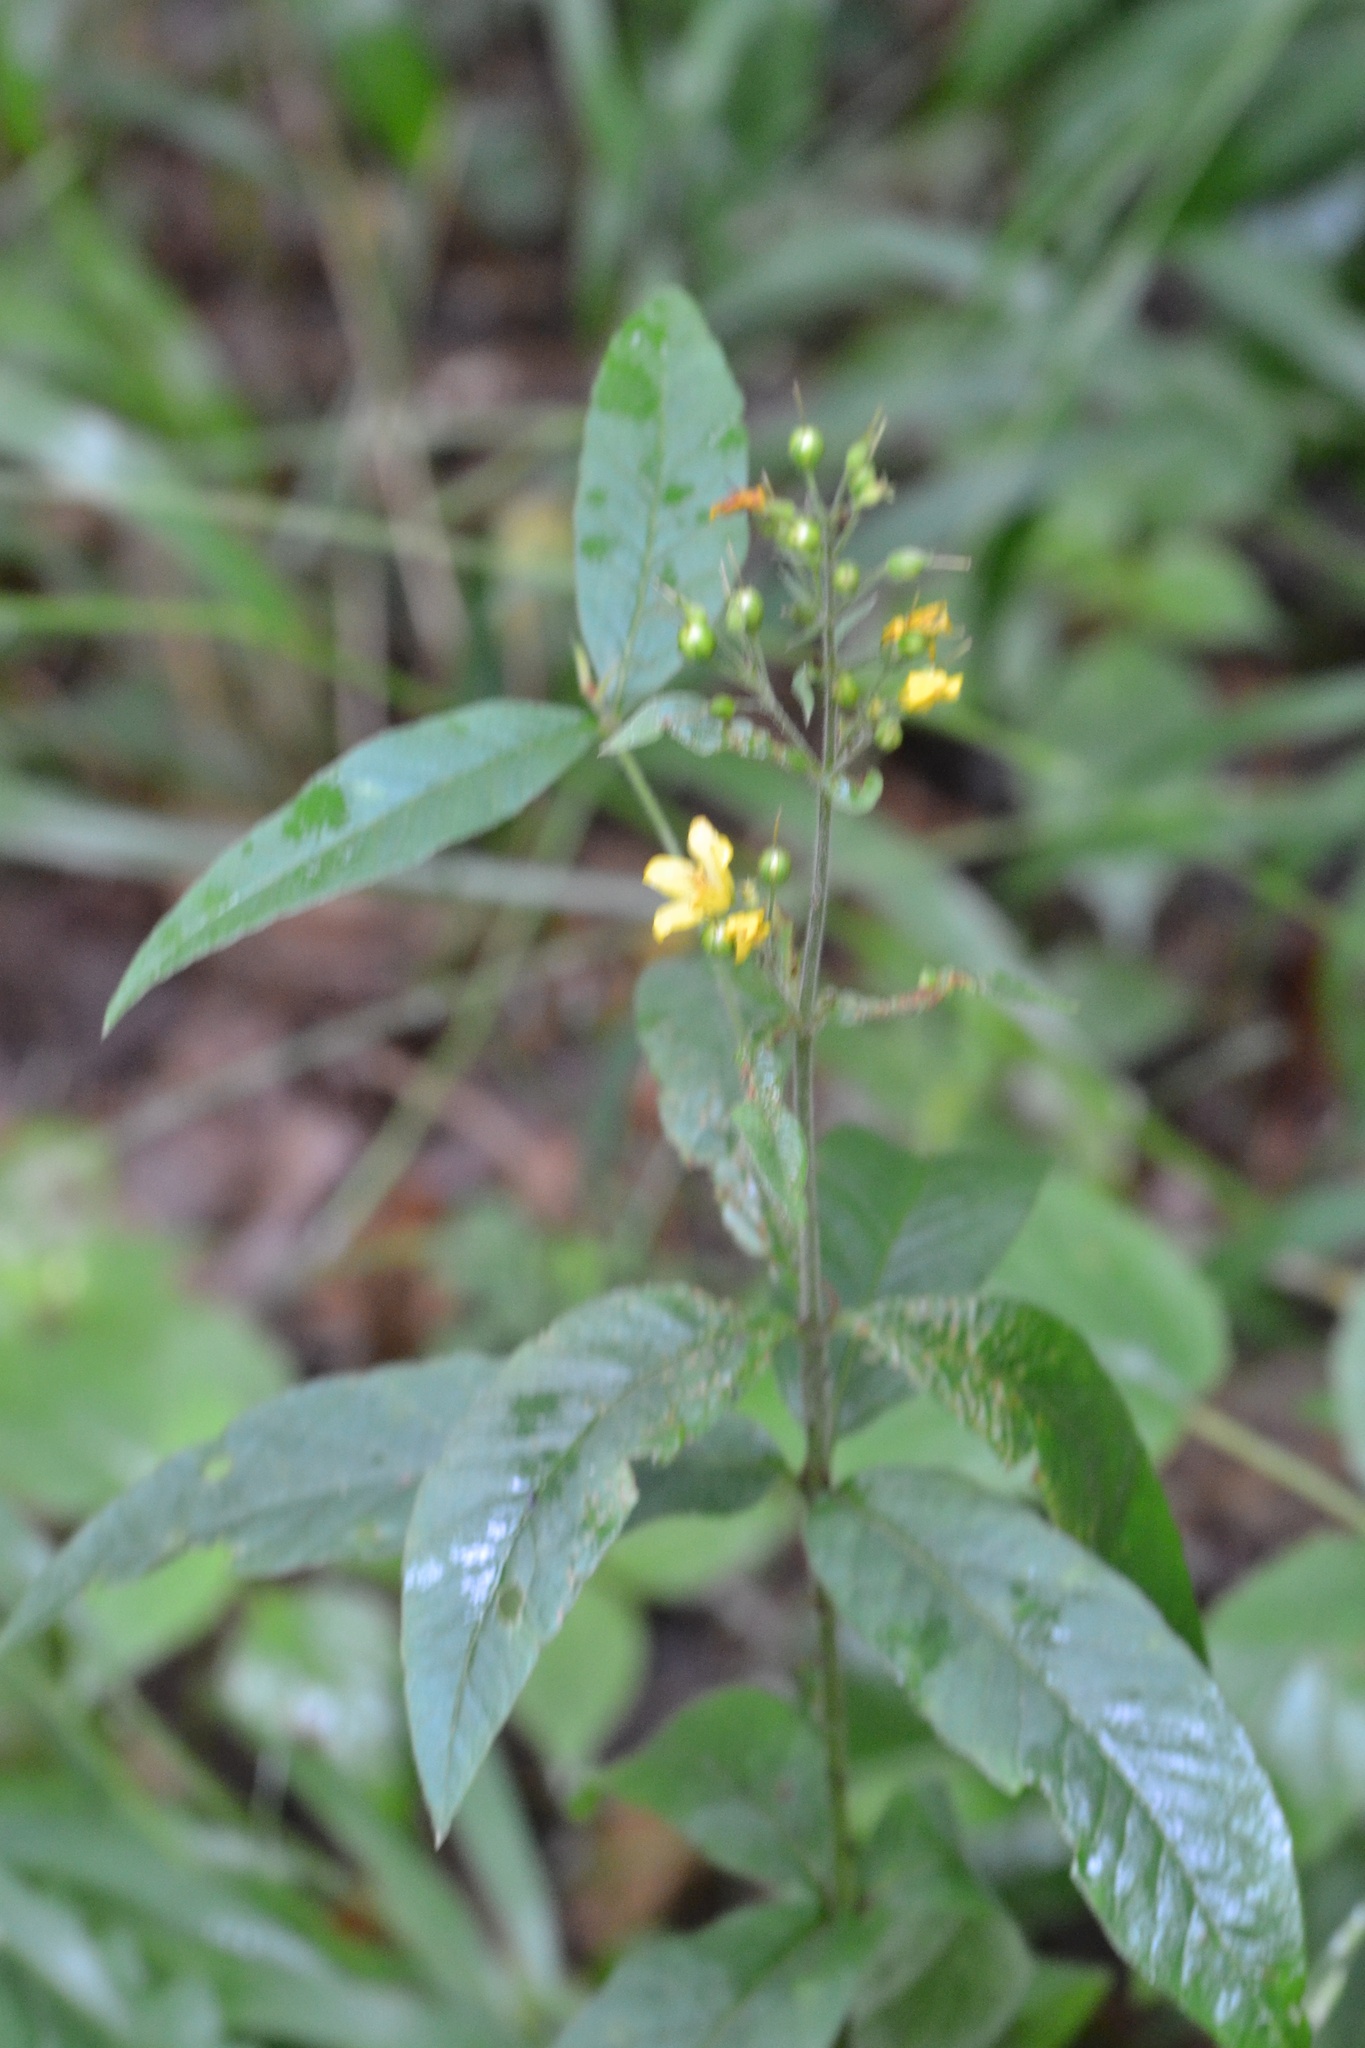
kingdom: Plantae
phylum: Tracheophyta
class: Magnoliopsida
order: Ericales
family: Primulaceae
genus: Lysimachia
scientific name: Lysimachia vulgaris
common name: Yellow loosestrife
